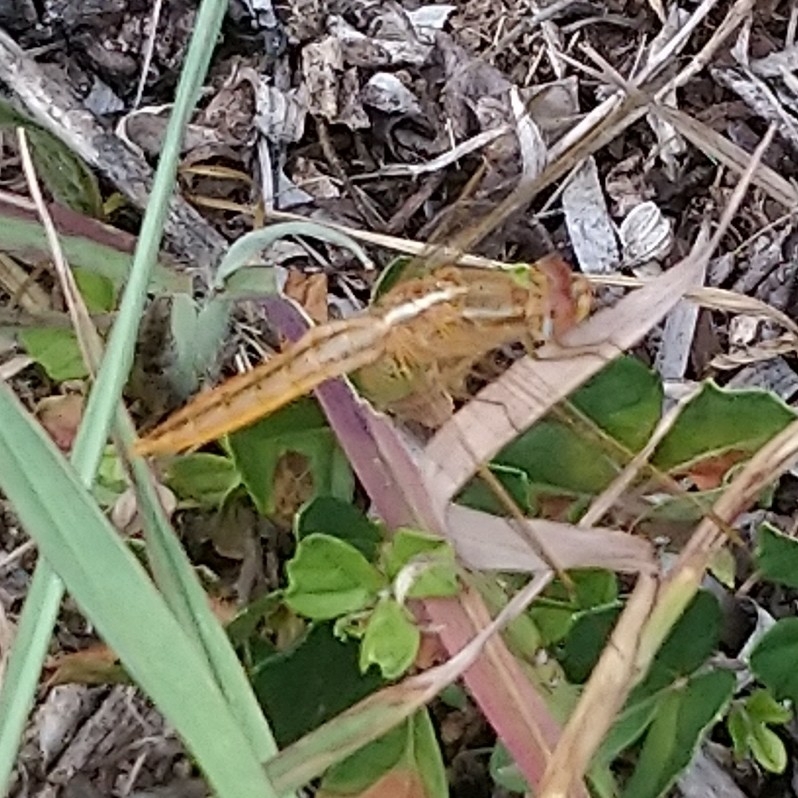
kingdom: Animalia
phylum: Arthropoda
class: Insecta
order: Odonata
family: Libellulidae
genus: Crocothemis
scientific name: Crocothemis erythraea
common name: Scarlet dragonfly
